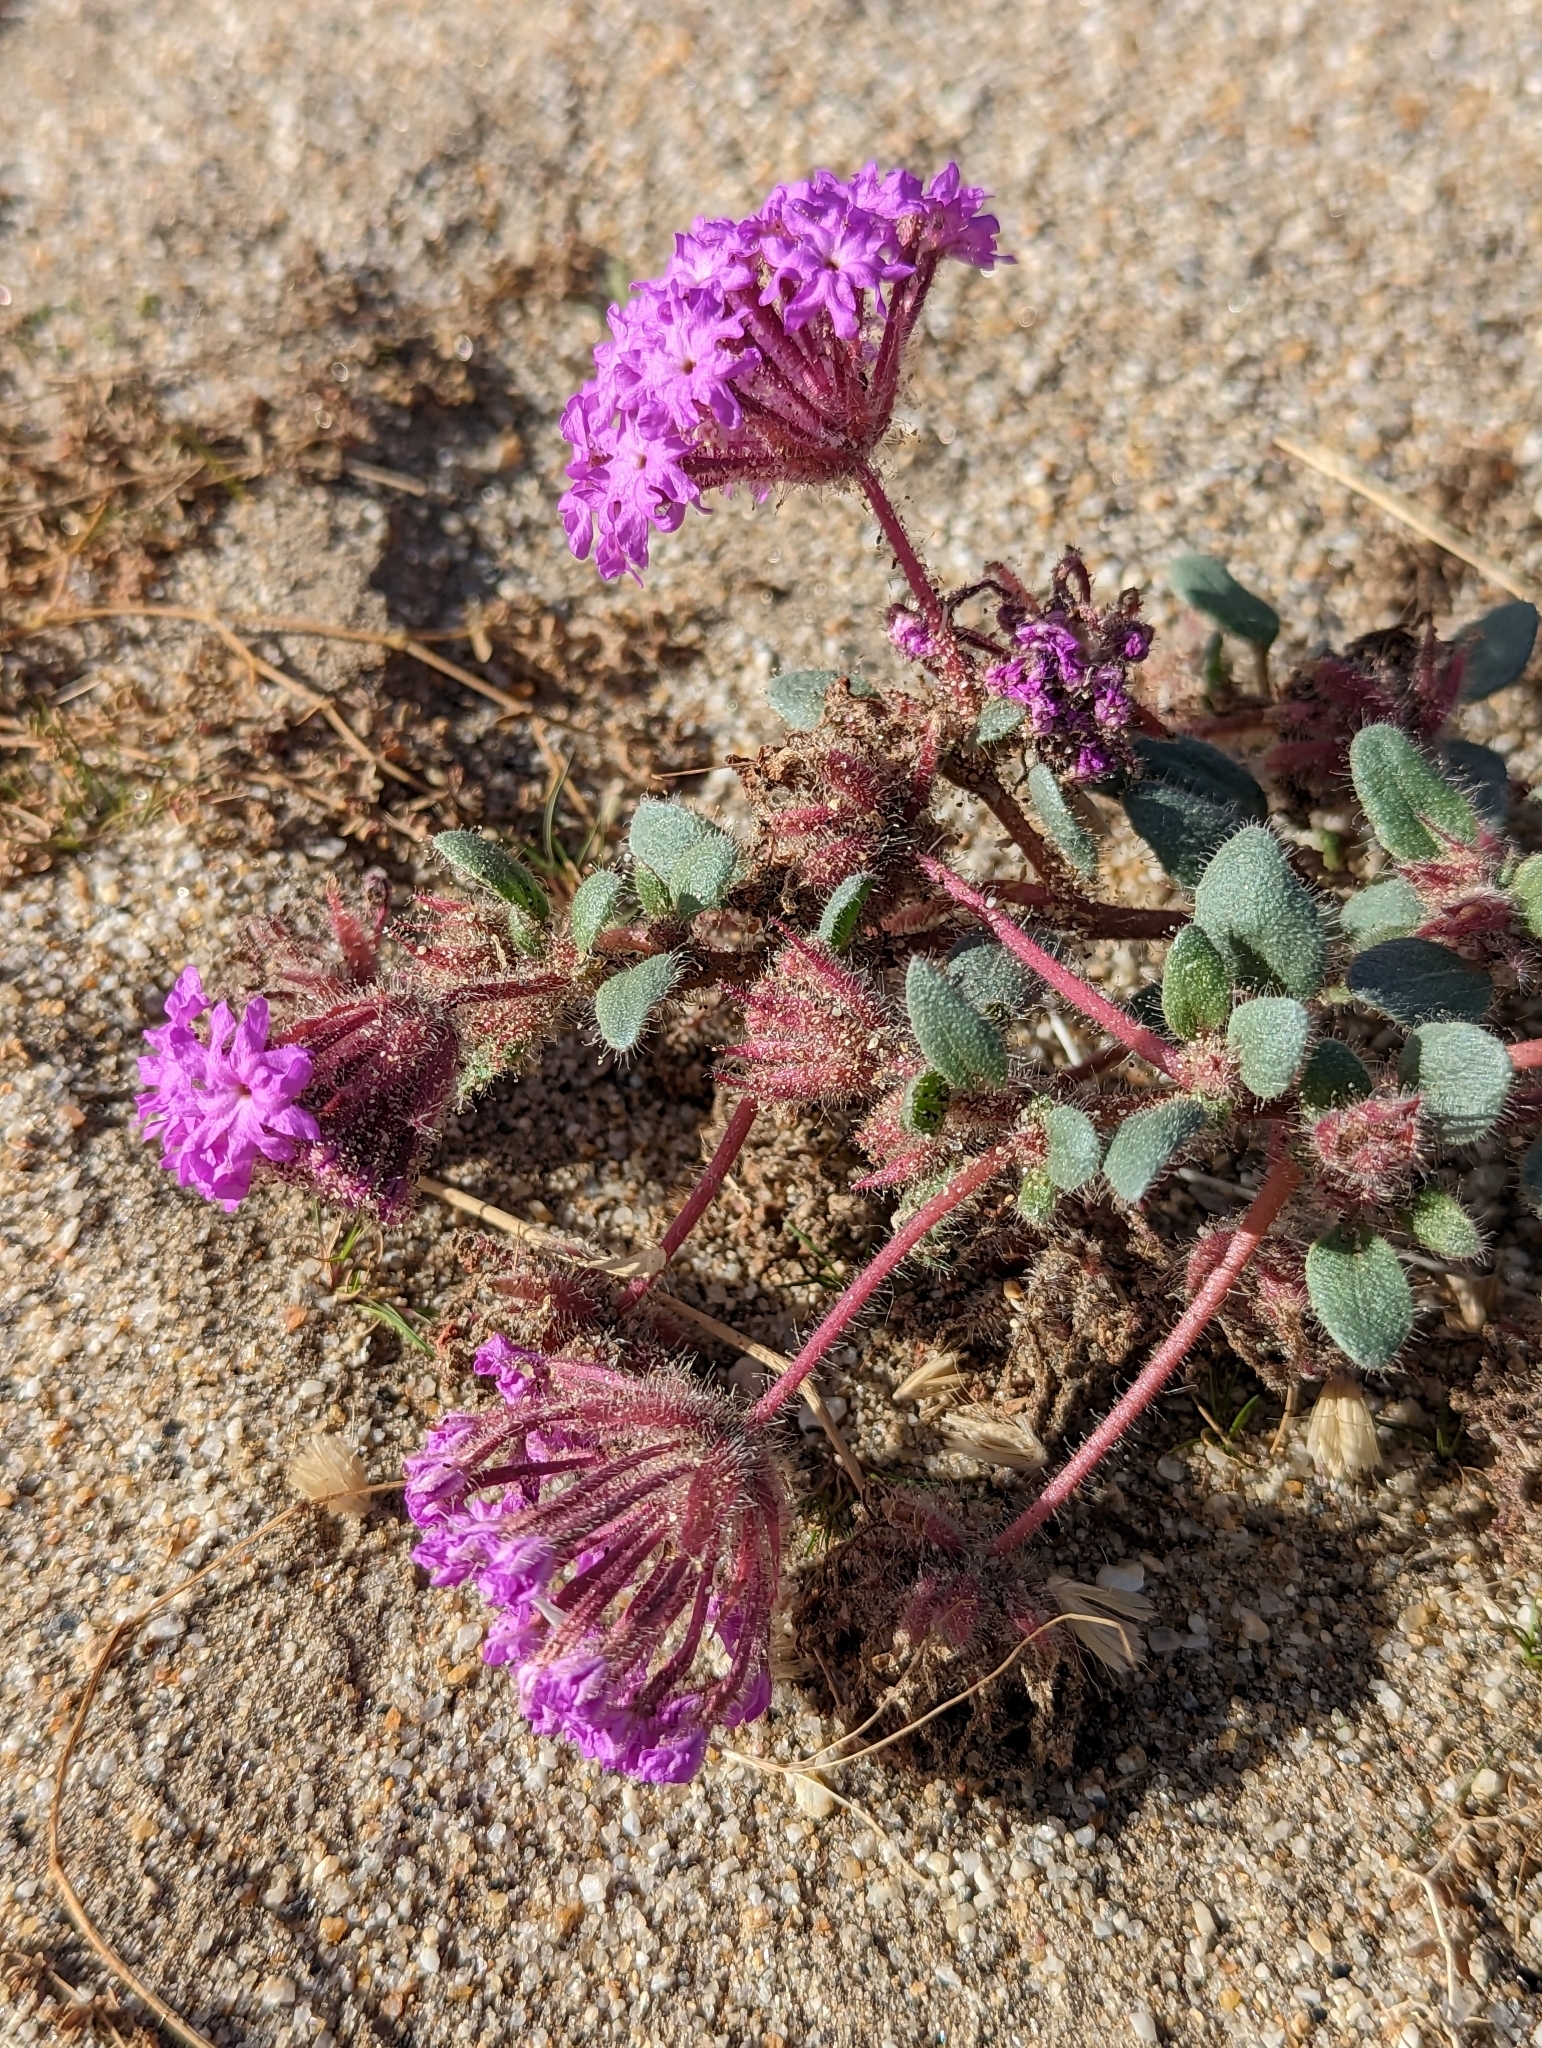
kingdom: Plantae
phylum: Tracheophyta
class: Magnoliopsida
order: Caryophyllales
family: Nyctaginaceae
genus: Abronia
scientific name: Abronia villosa
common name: Desert sand-verbena
